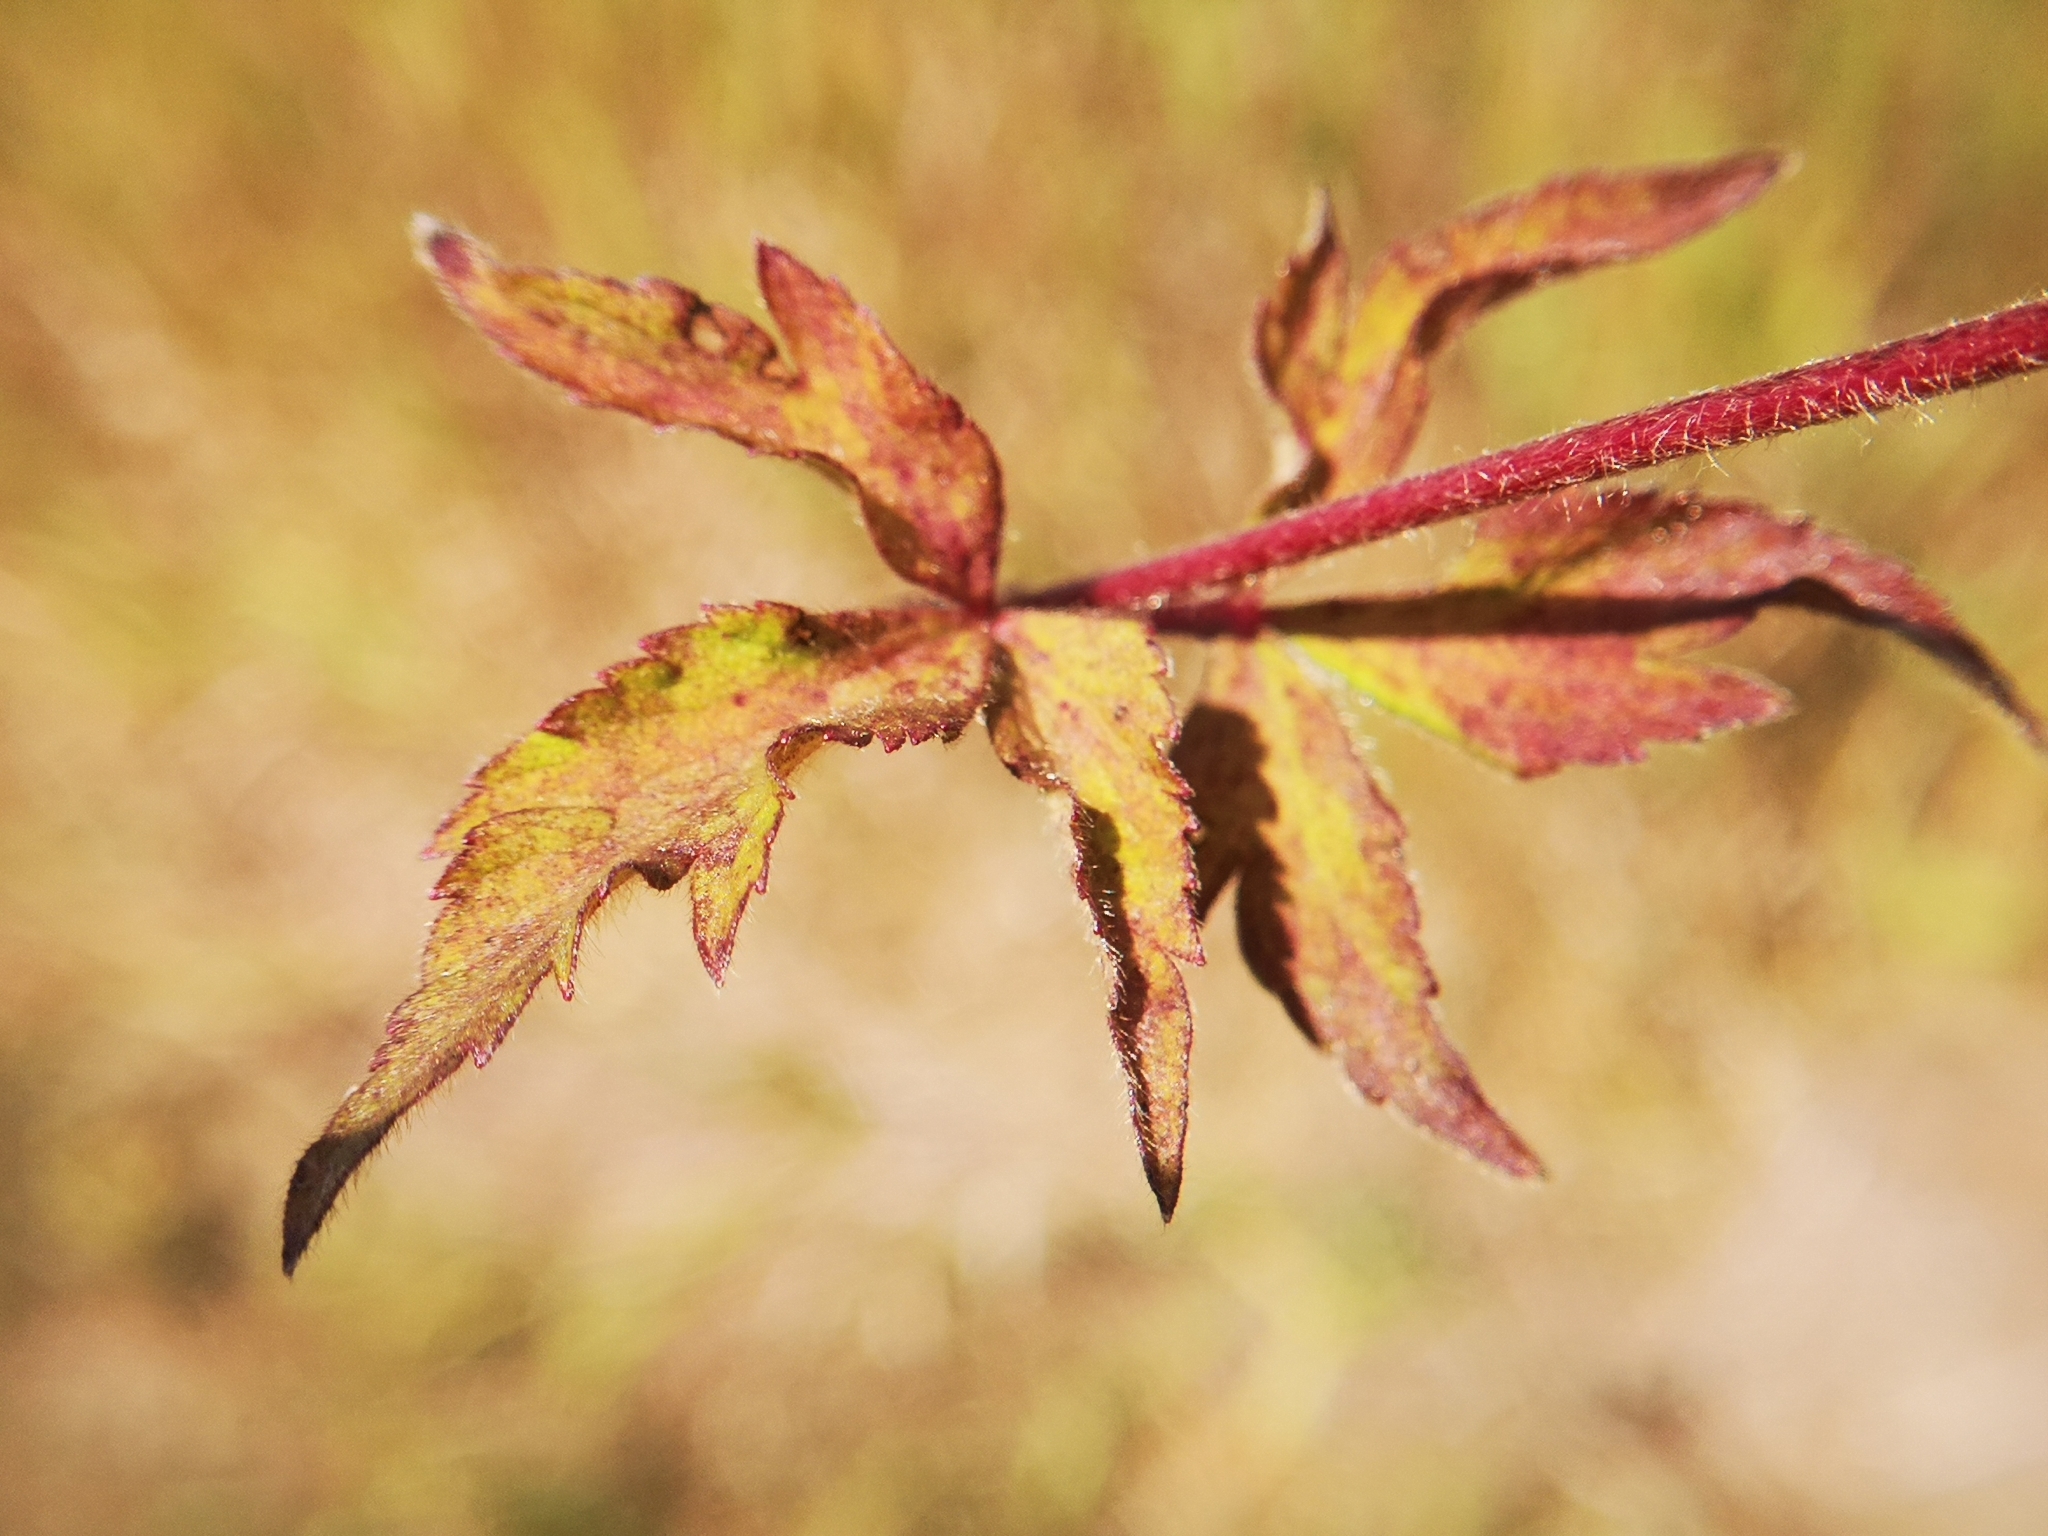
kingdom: Plantae
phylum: Tracheophyta
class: Magnoliopsida
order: Ranunculales
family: Ranunculaceae
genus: Anemone
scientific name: Anemone virginiana
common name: Tall anemone
